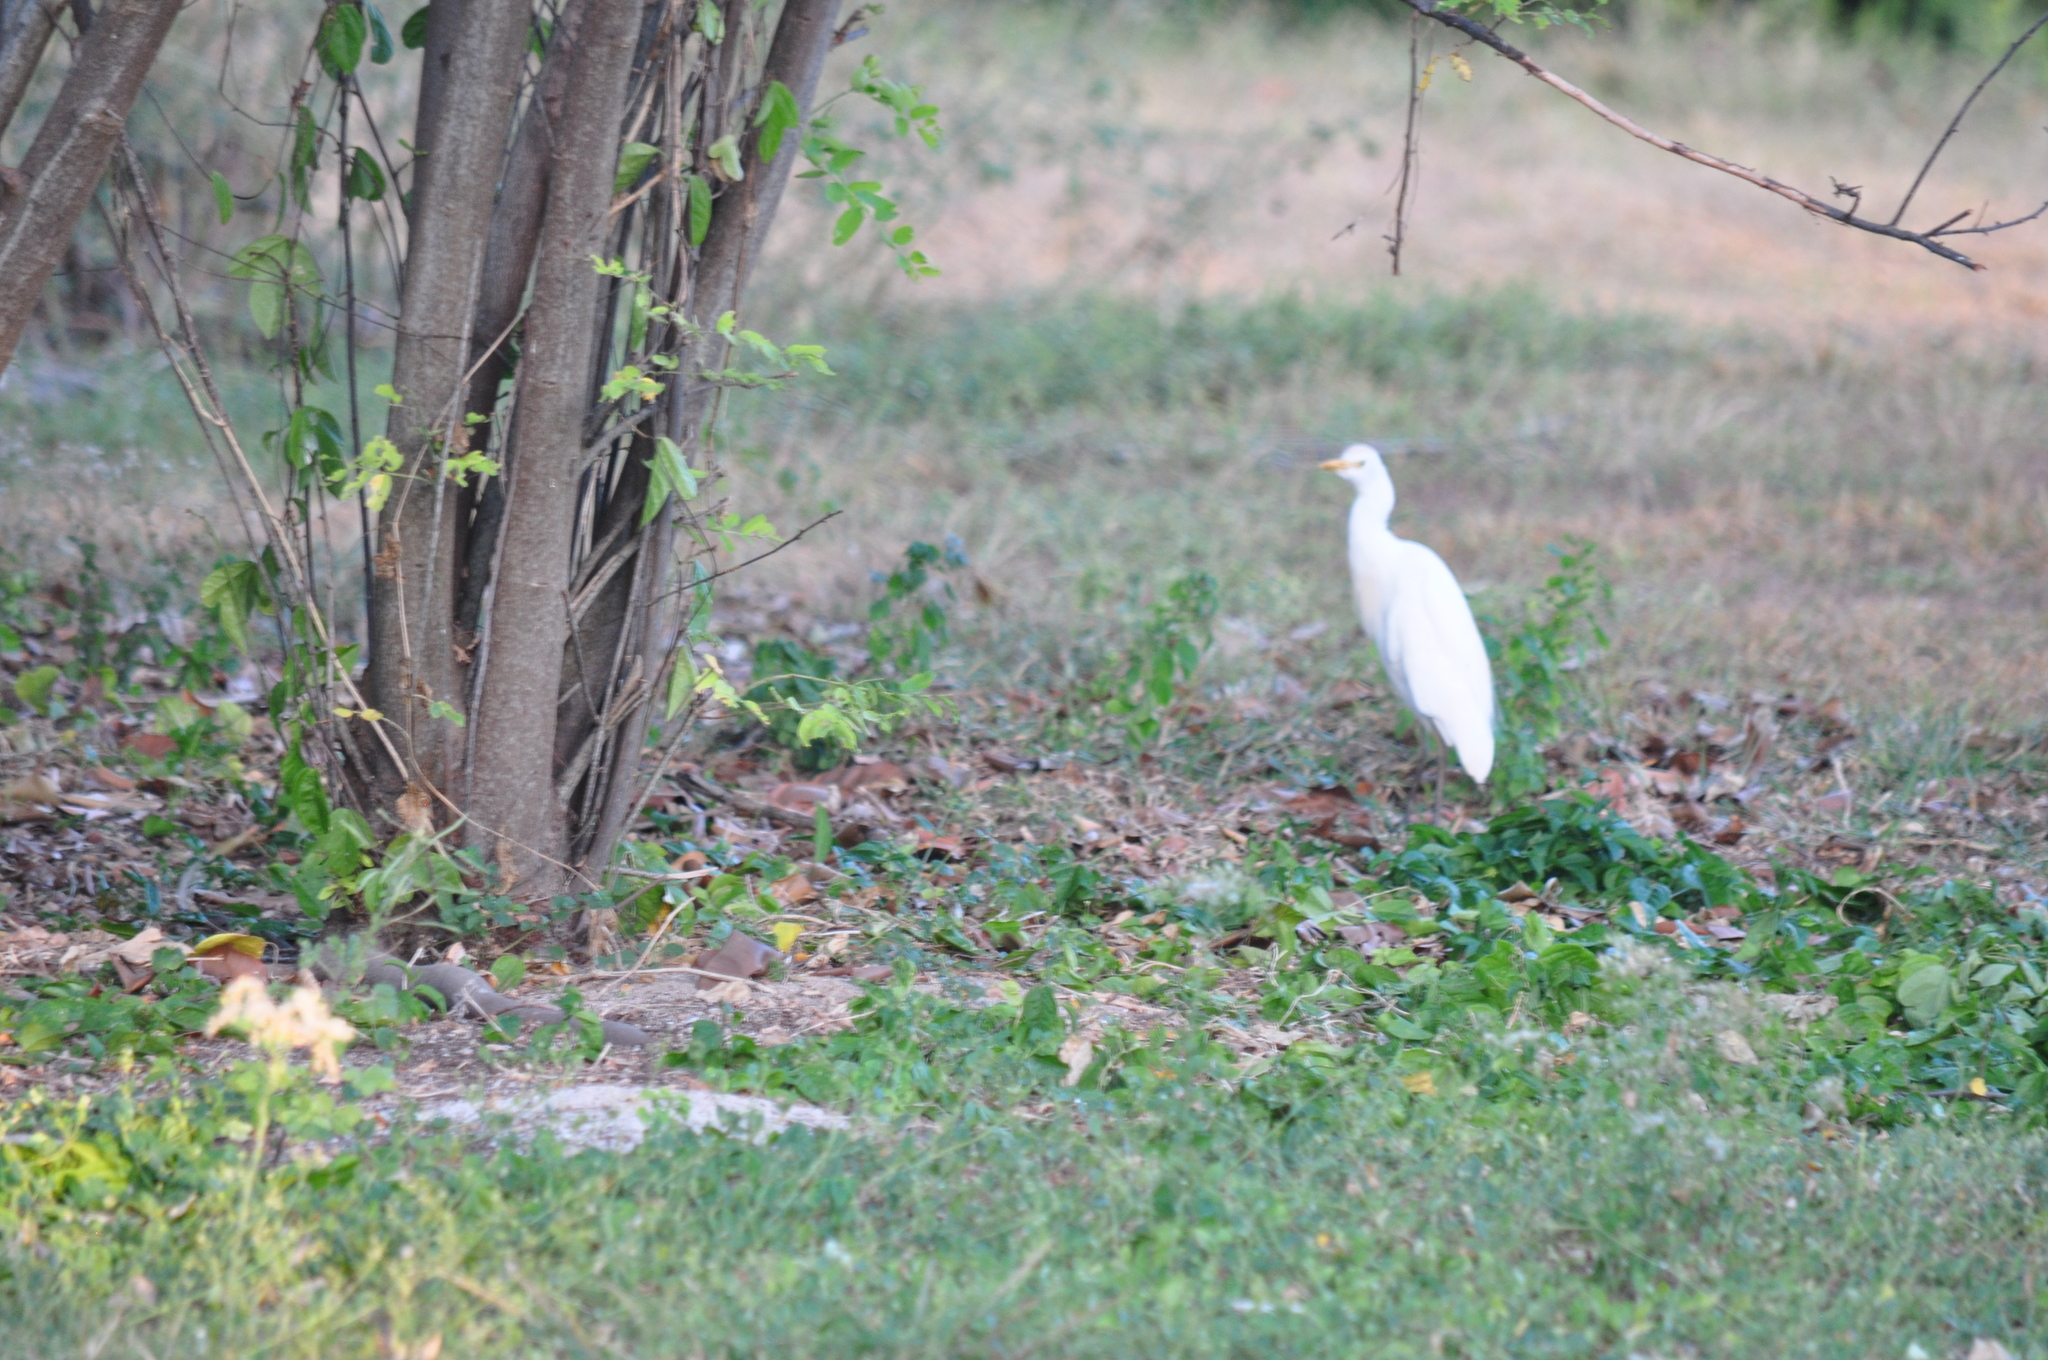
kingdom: Animalia
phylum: Chordata
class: Aves
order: Pelecaniformes
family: Ardeidae
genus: Bubulcus
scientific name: Bubulcus ibis
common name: Cattle egret
